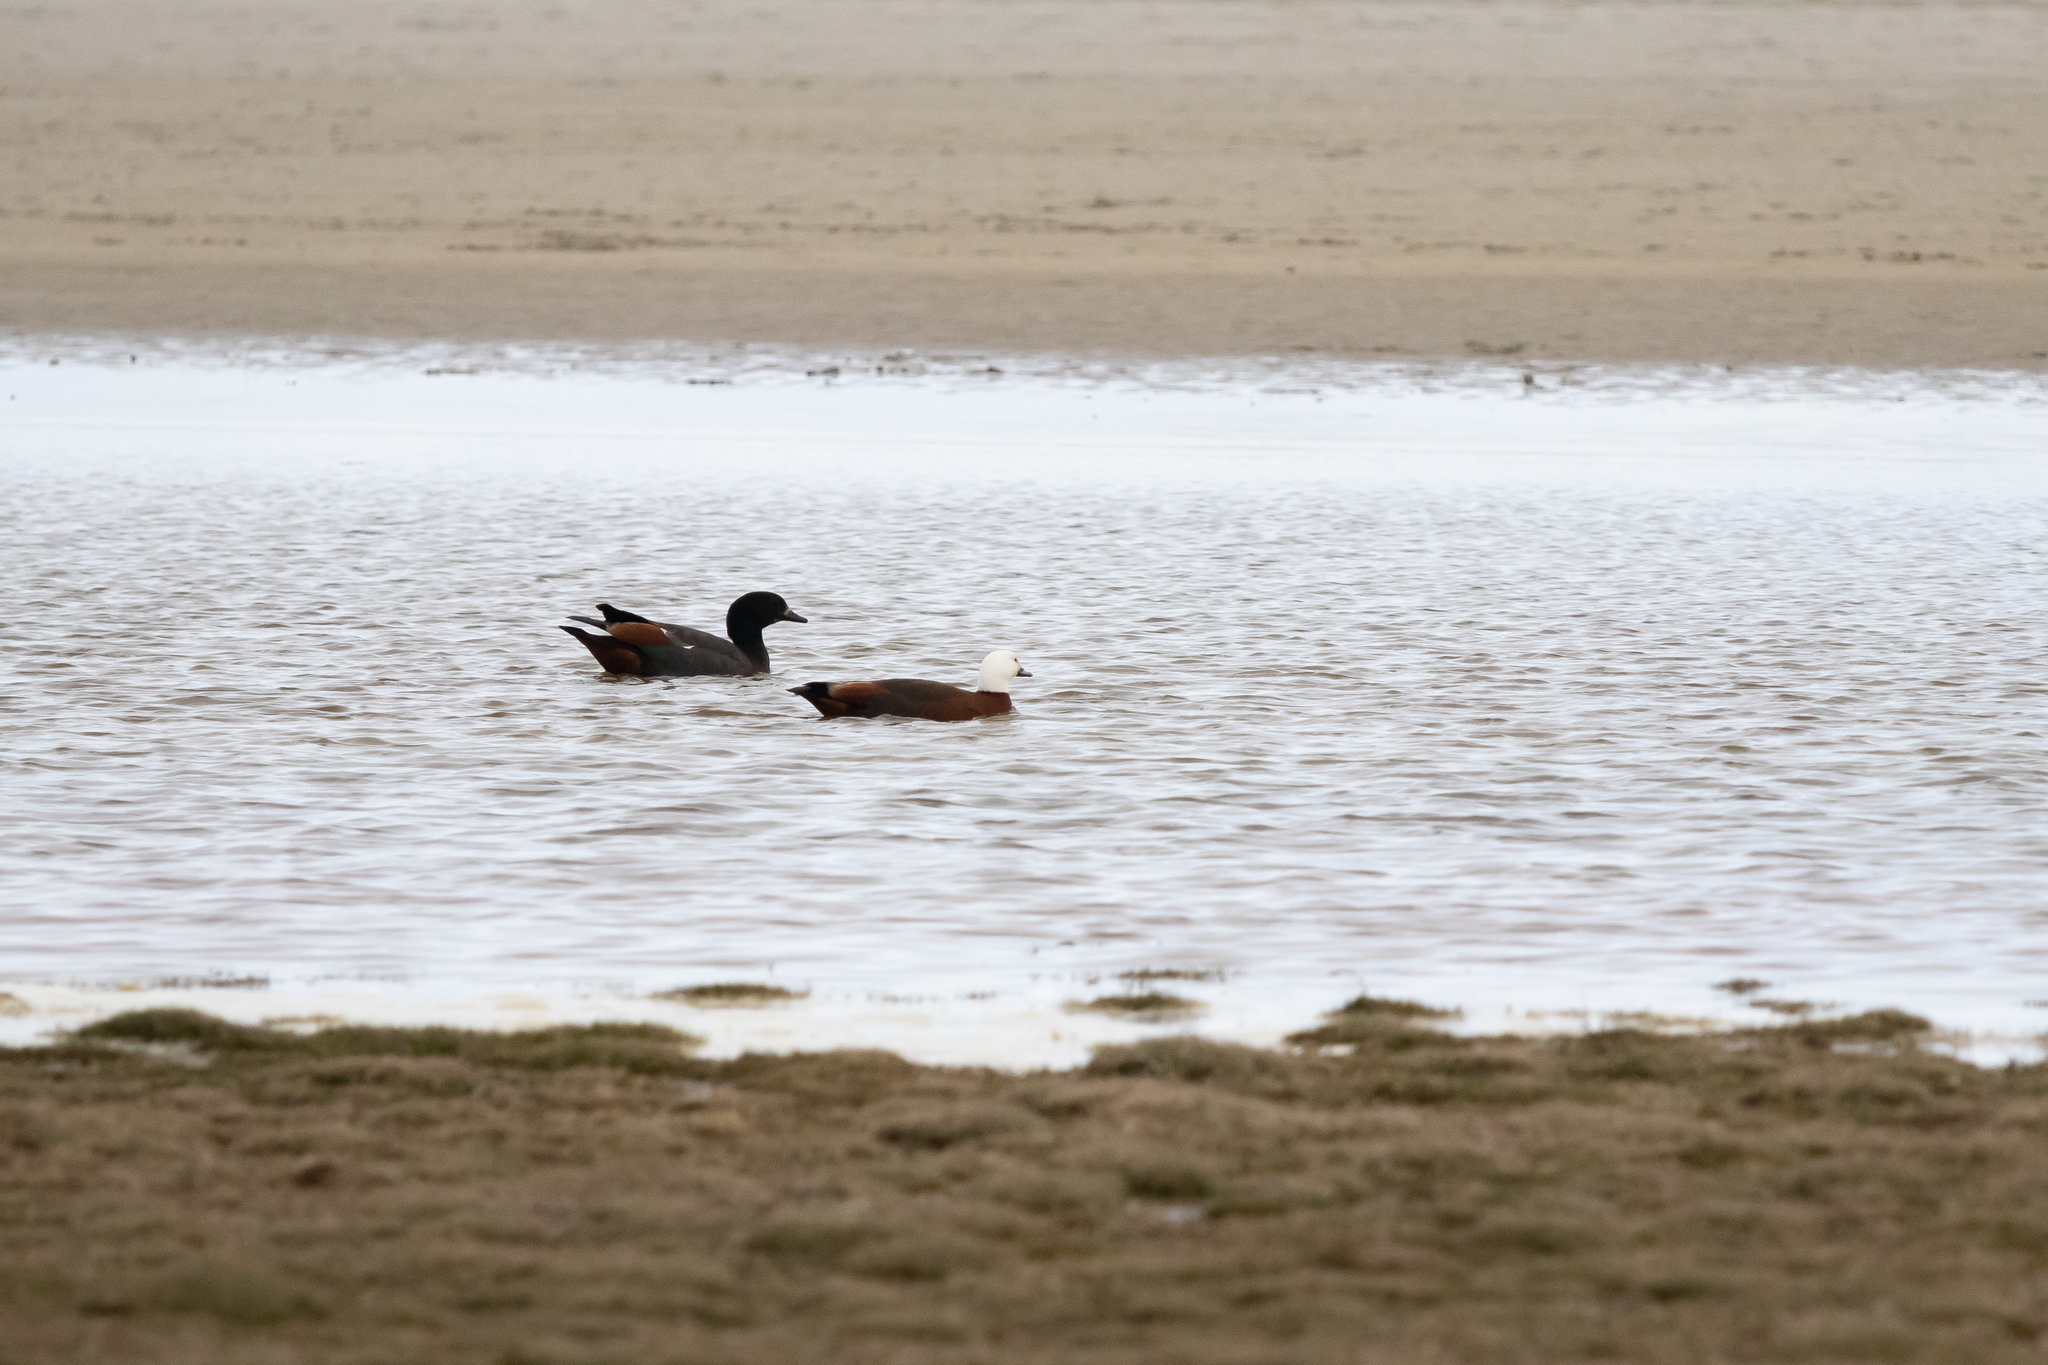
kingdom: Animalia
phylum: Chordata
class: Aves
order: Anseriformes
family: Anatidae
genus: Tadorna
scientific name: Tadorna variegata
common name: Paradise shelduck
